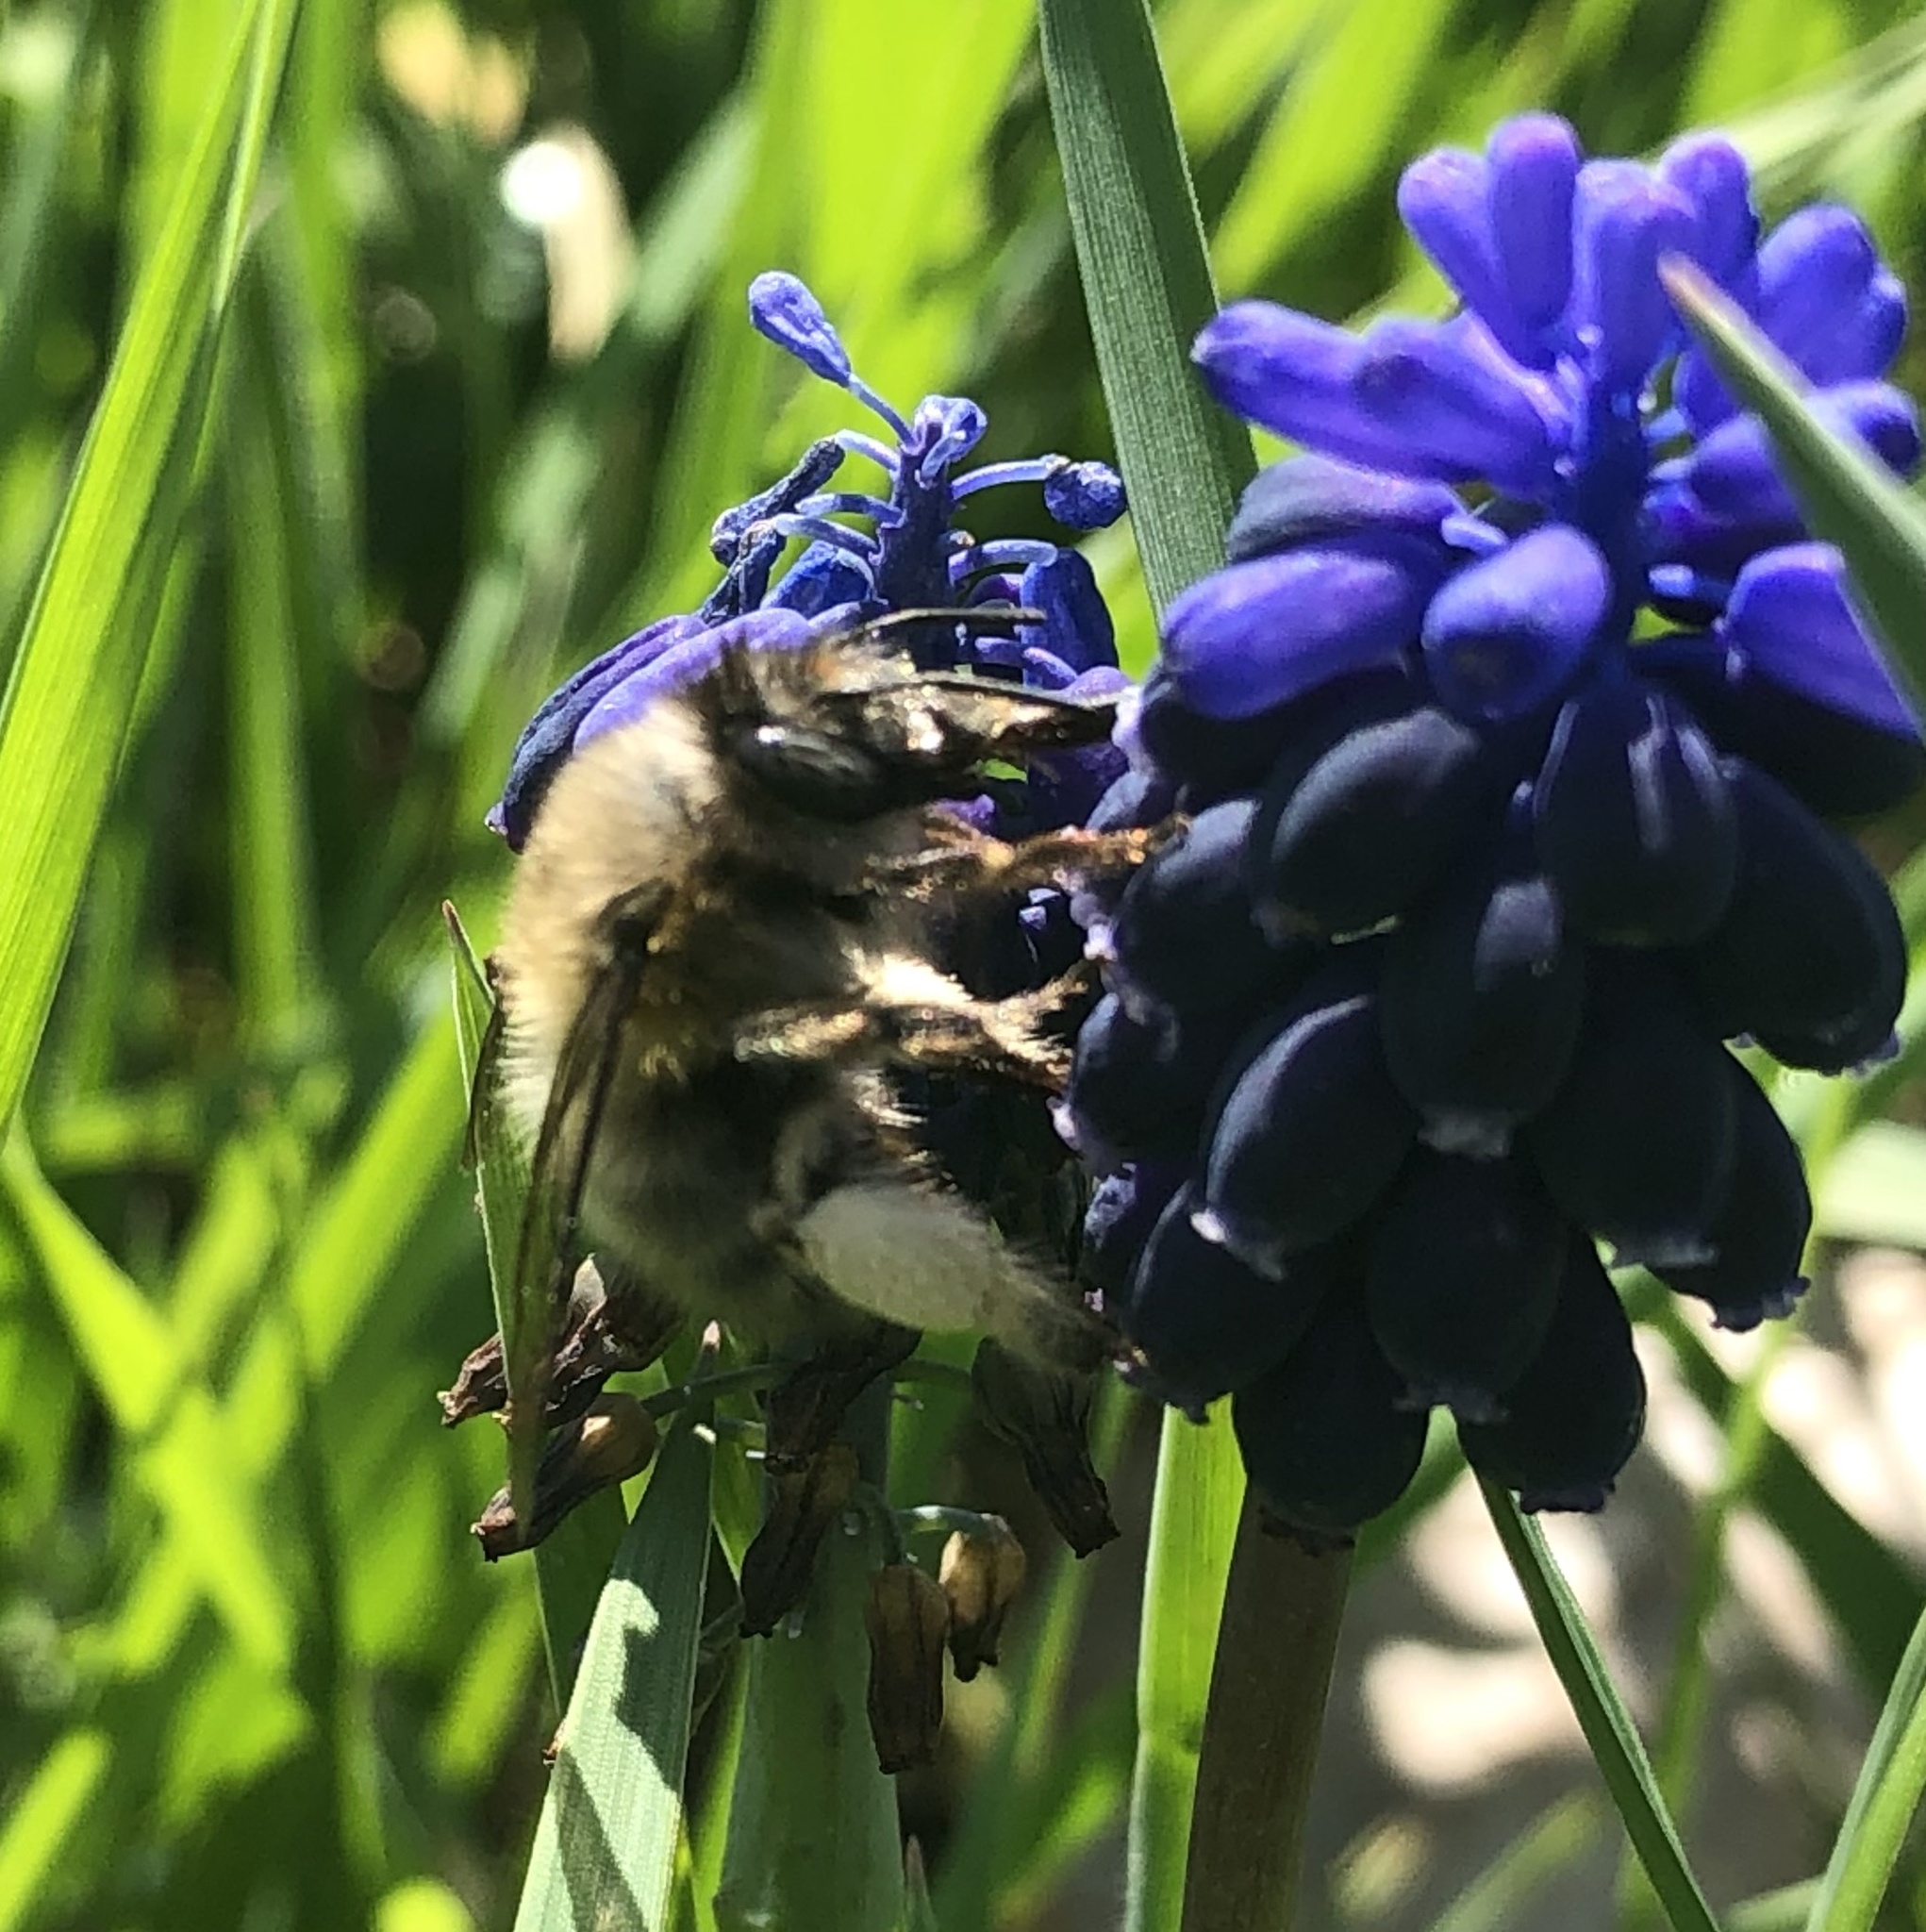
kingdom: Animalia
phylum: Arthropoda
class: Insecta
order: Hymenoptera
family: Apidae
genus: Anthophora
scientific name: Anthophora plumipes
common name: Hairy-footed flower bee
